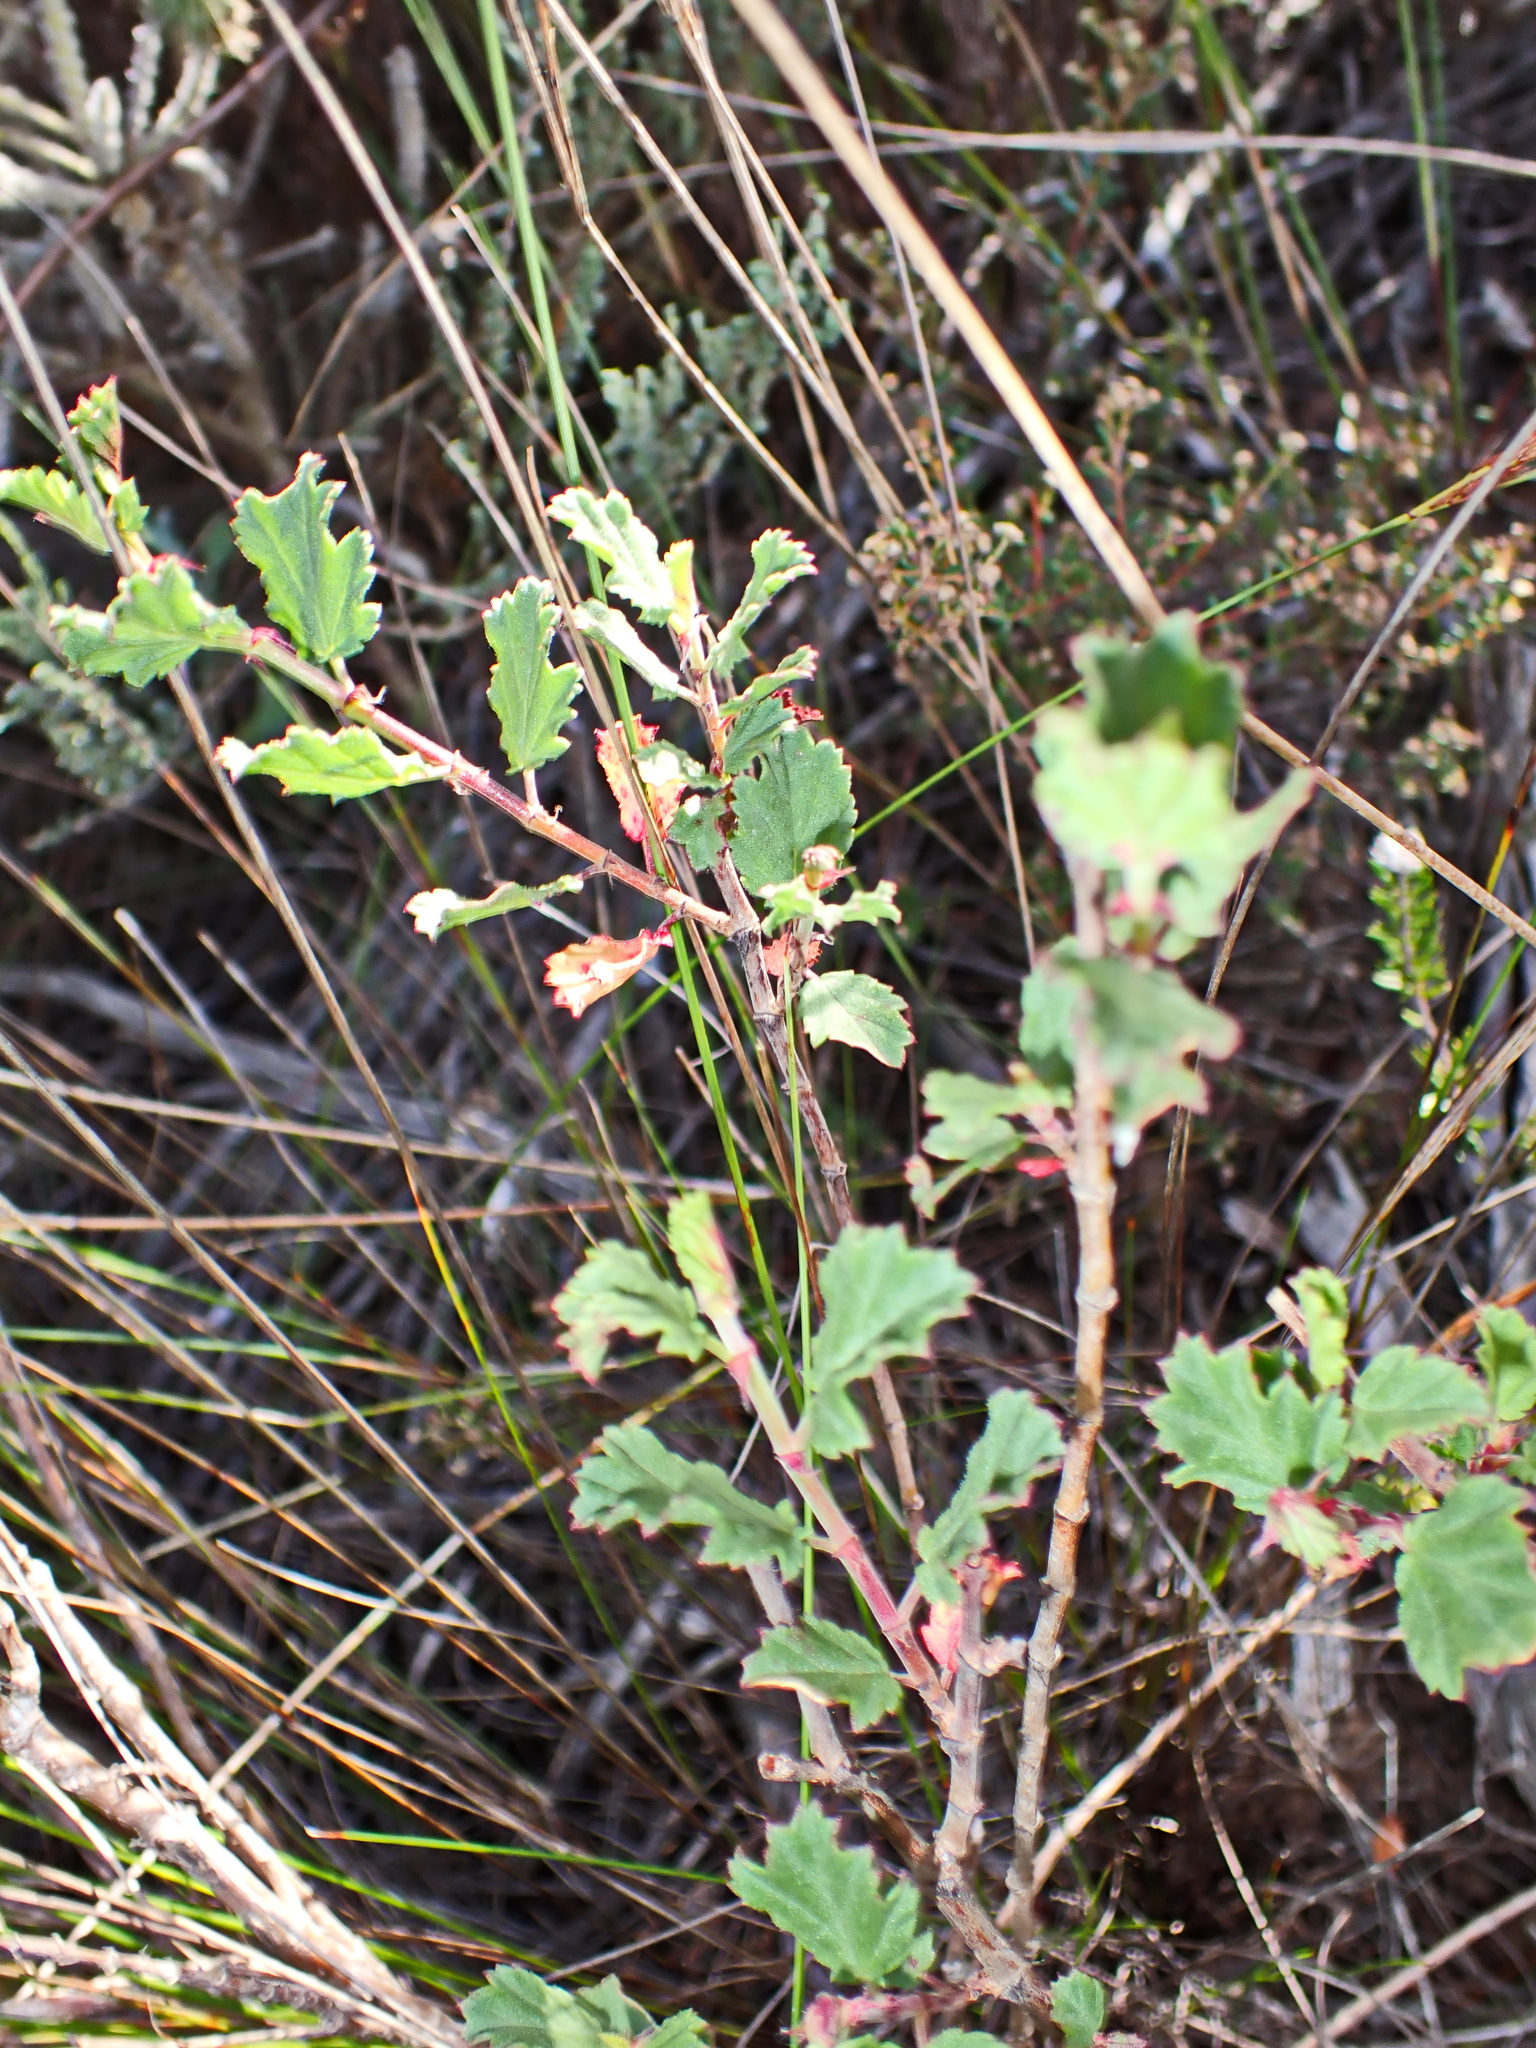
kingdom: Plantae
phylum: Tracheophyta
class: Magnoliopsida
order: Geraniales
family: Geraniaceae
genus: Pelargonium
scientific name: Pelargonium betulinum
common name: Birch-leaf pelargonium
